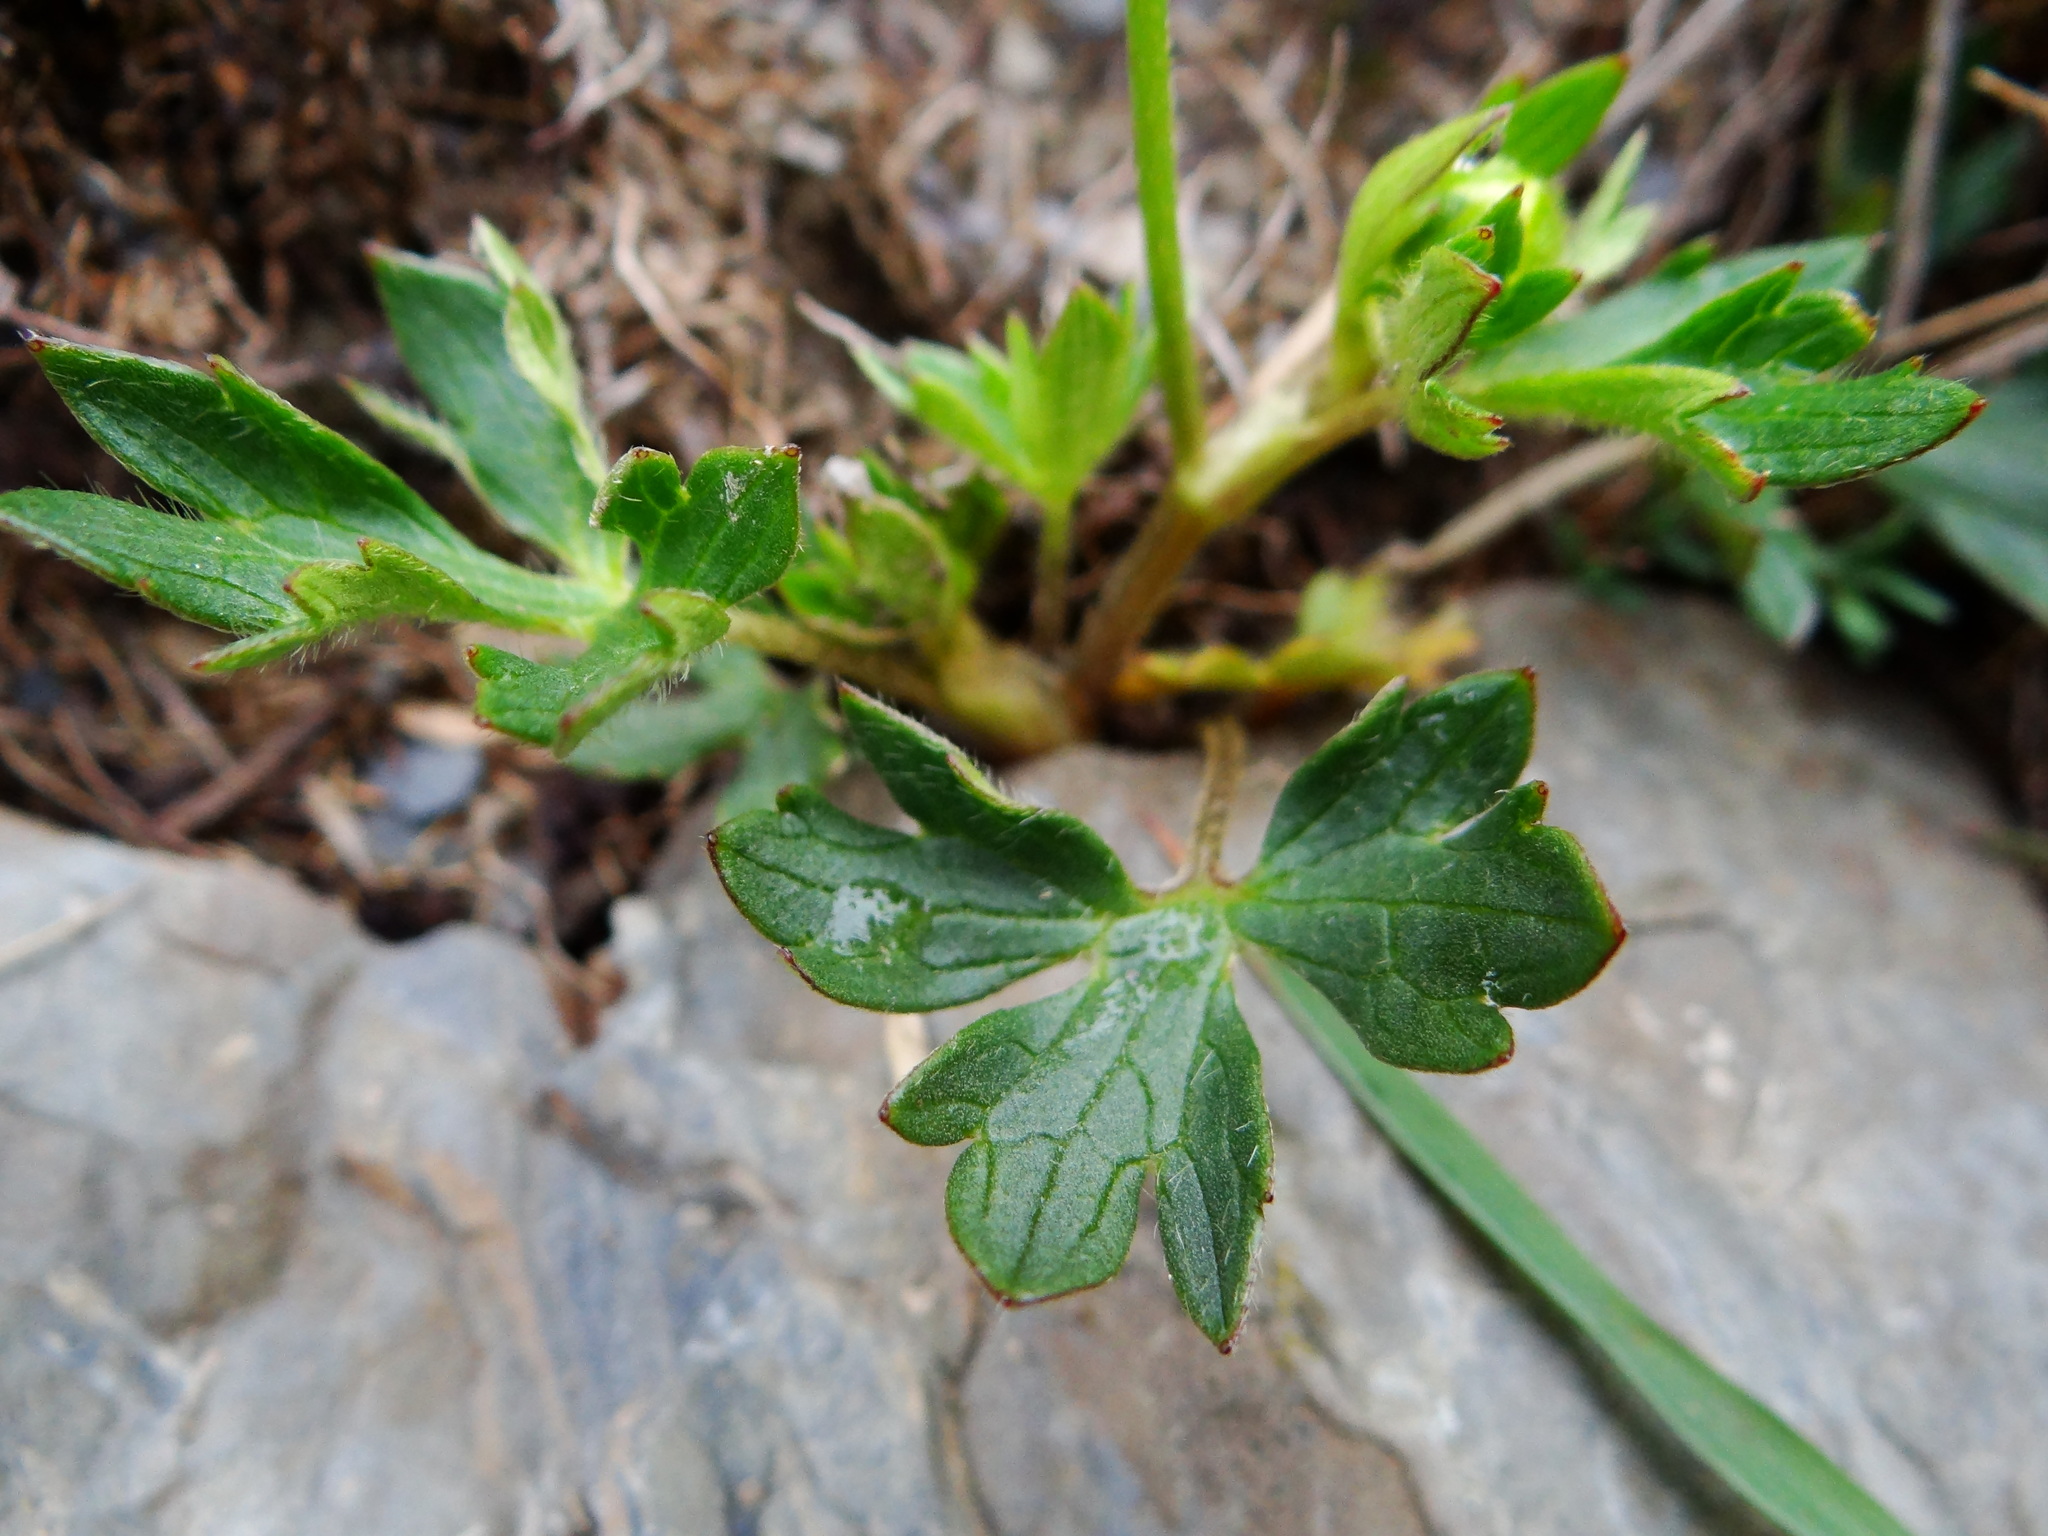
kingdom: Plantae
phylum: Tracheophyta
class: Magnoliopsida
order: Ranunculales
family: Ranunculaceae
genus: Ranunculus
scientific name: Ranunculus formosa-montanus
